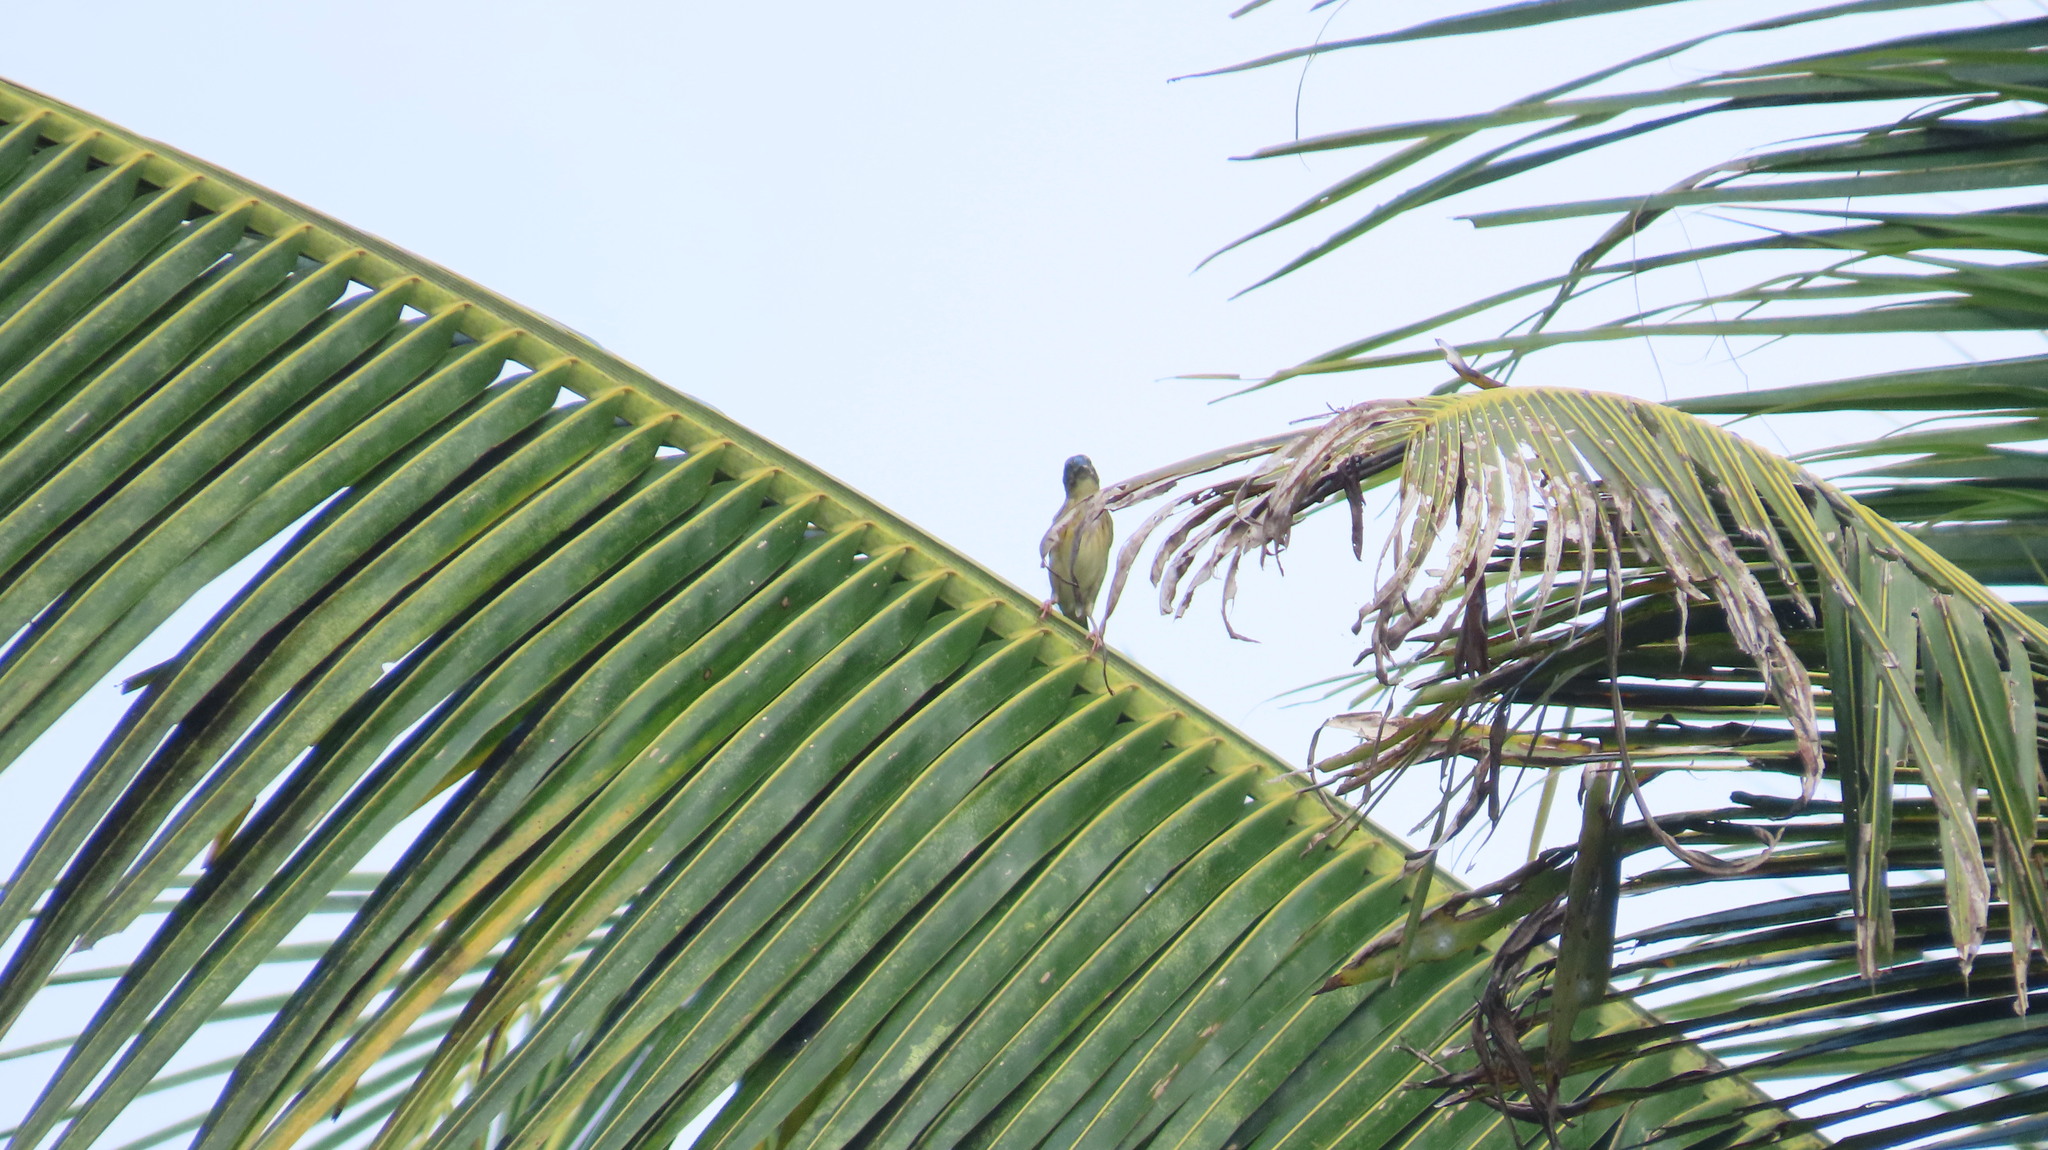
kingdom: Animalia
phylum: Chordata
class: Aves
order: Passeriformes
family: Ploceidae
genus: Ploceus
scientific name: Ploceus philippinus
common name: Baya weaver
